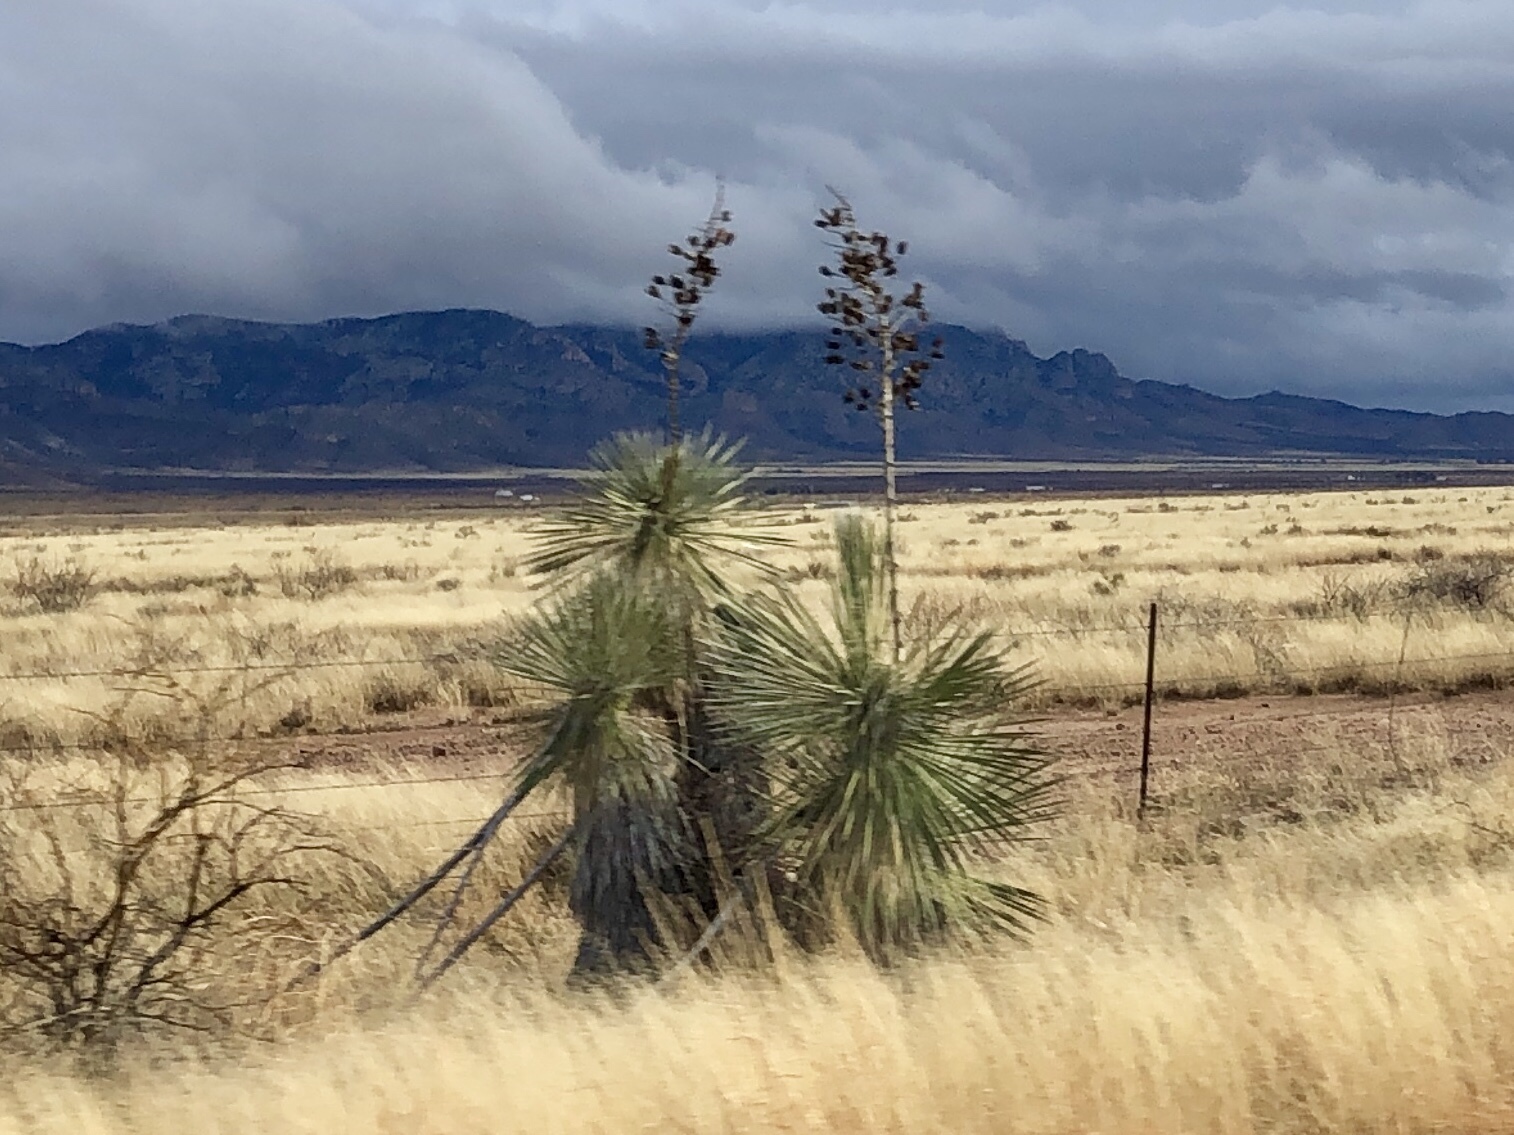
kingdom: Plantae
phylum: Tracheophyta
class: Liliopsida
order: Asparagales
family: Asparagaceae
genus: Yucca
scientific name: Yucca elata
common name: Palmella
